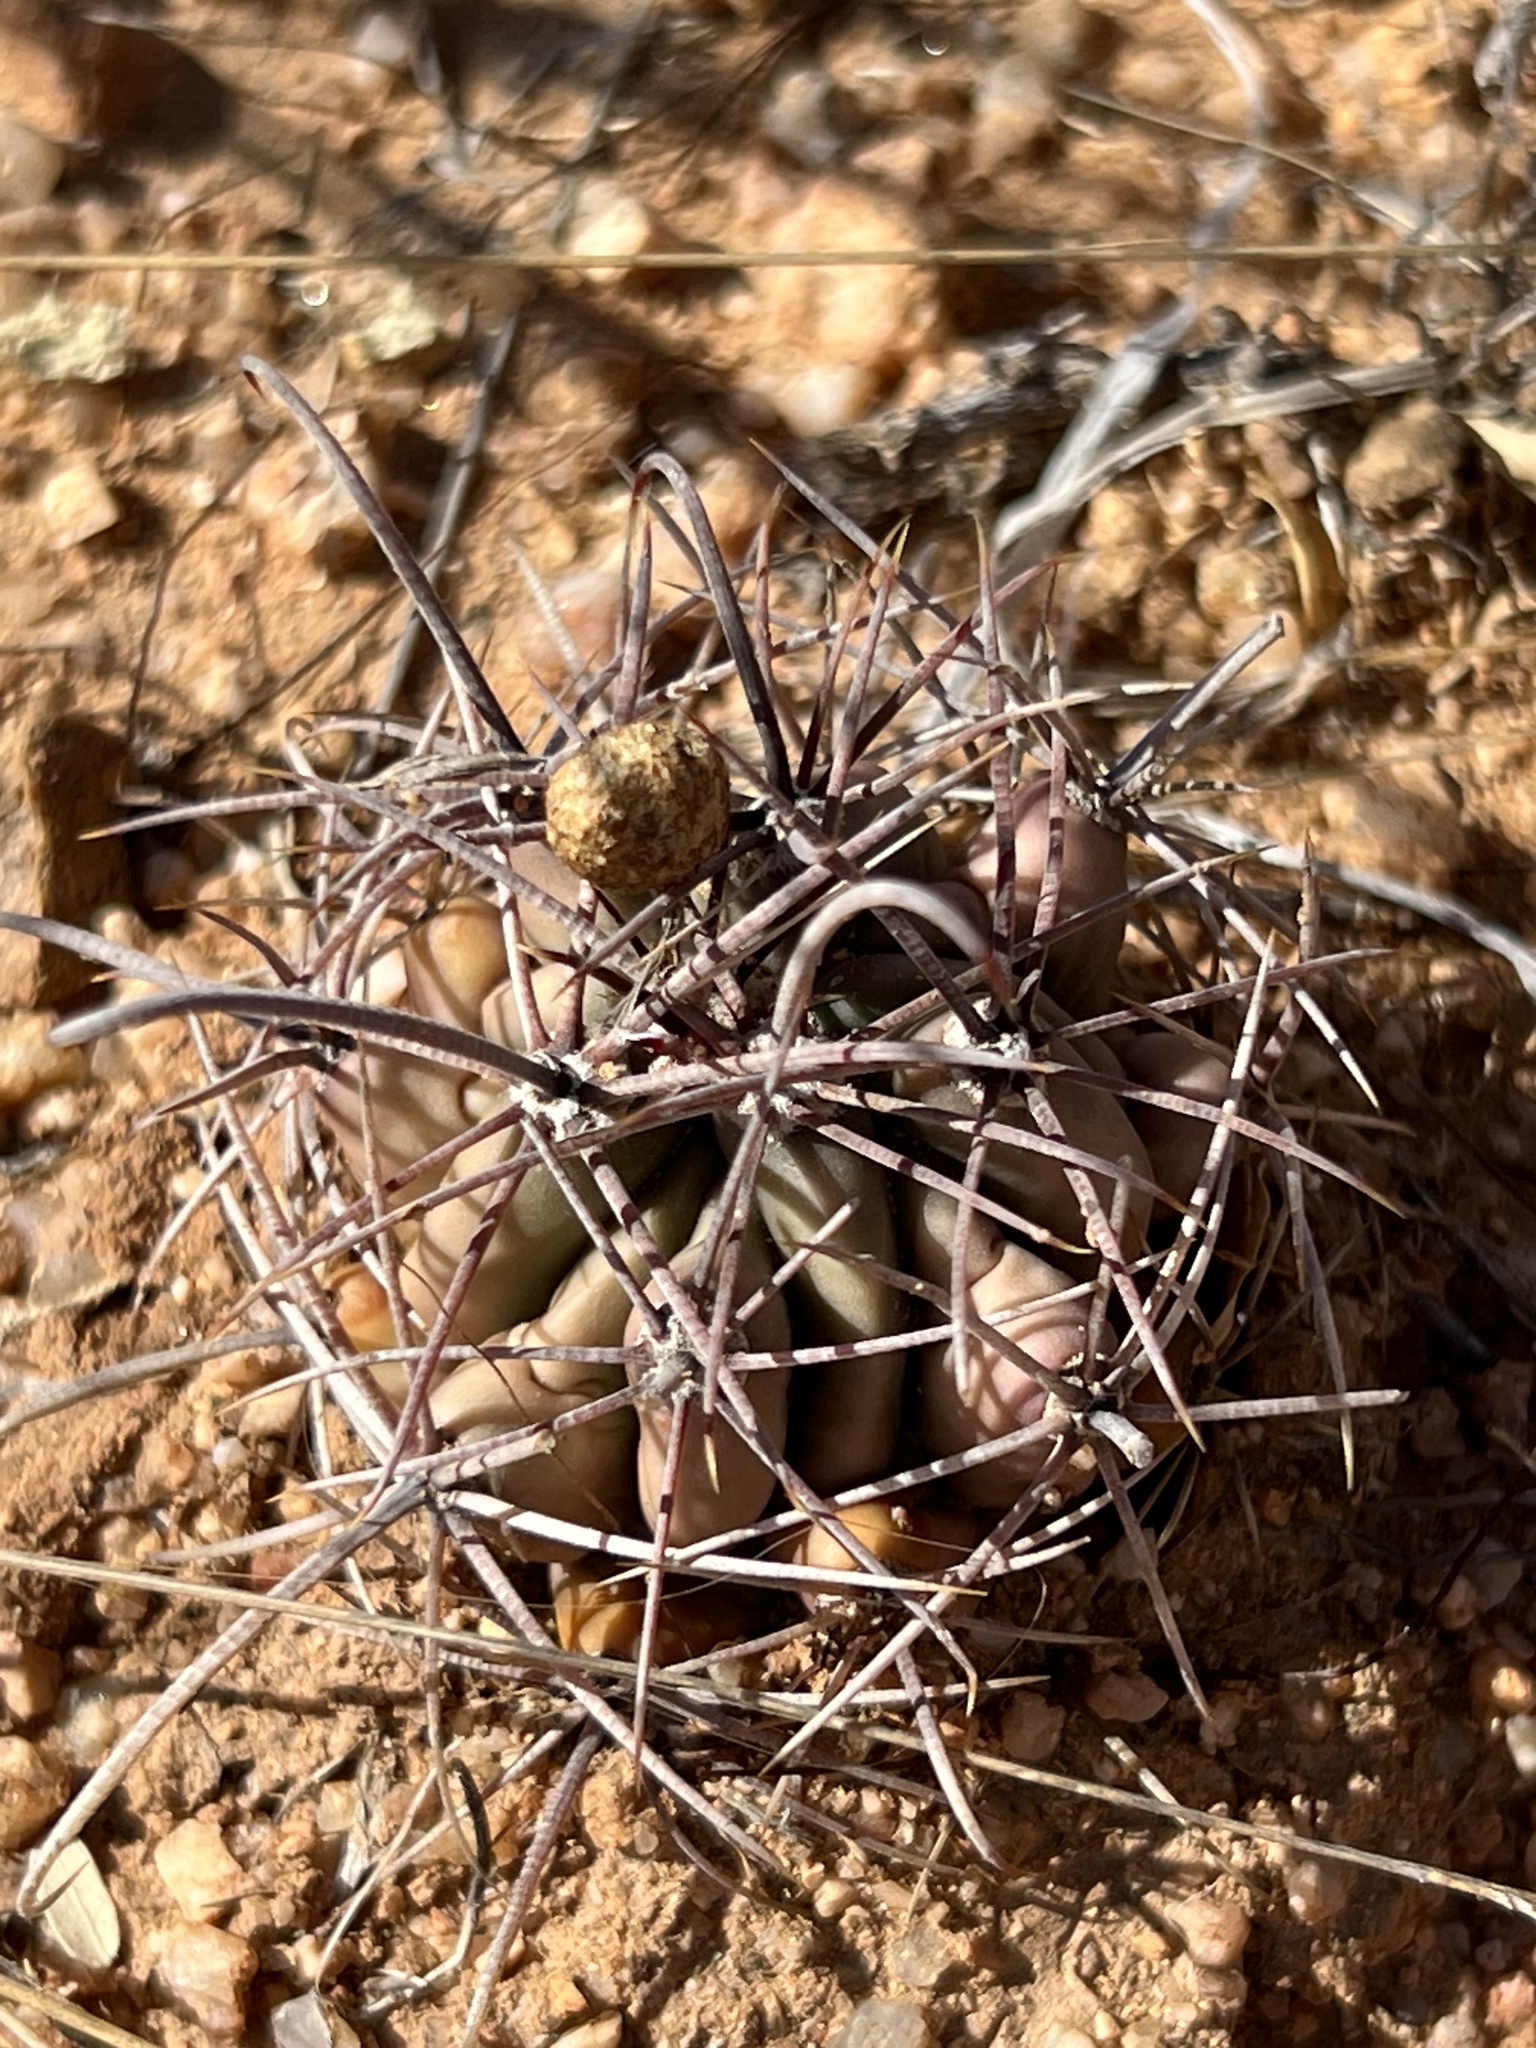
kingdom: Plantae
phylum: Tracheophyta
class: Magnoliopsida
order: Caryophyllales
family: Cactaceae
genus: Ferocactus
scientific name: Ferocactus wislizeni
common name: Candy barrel cactus
